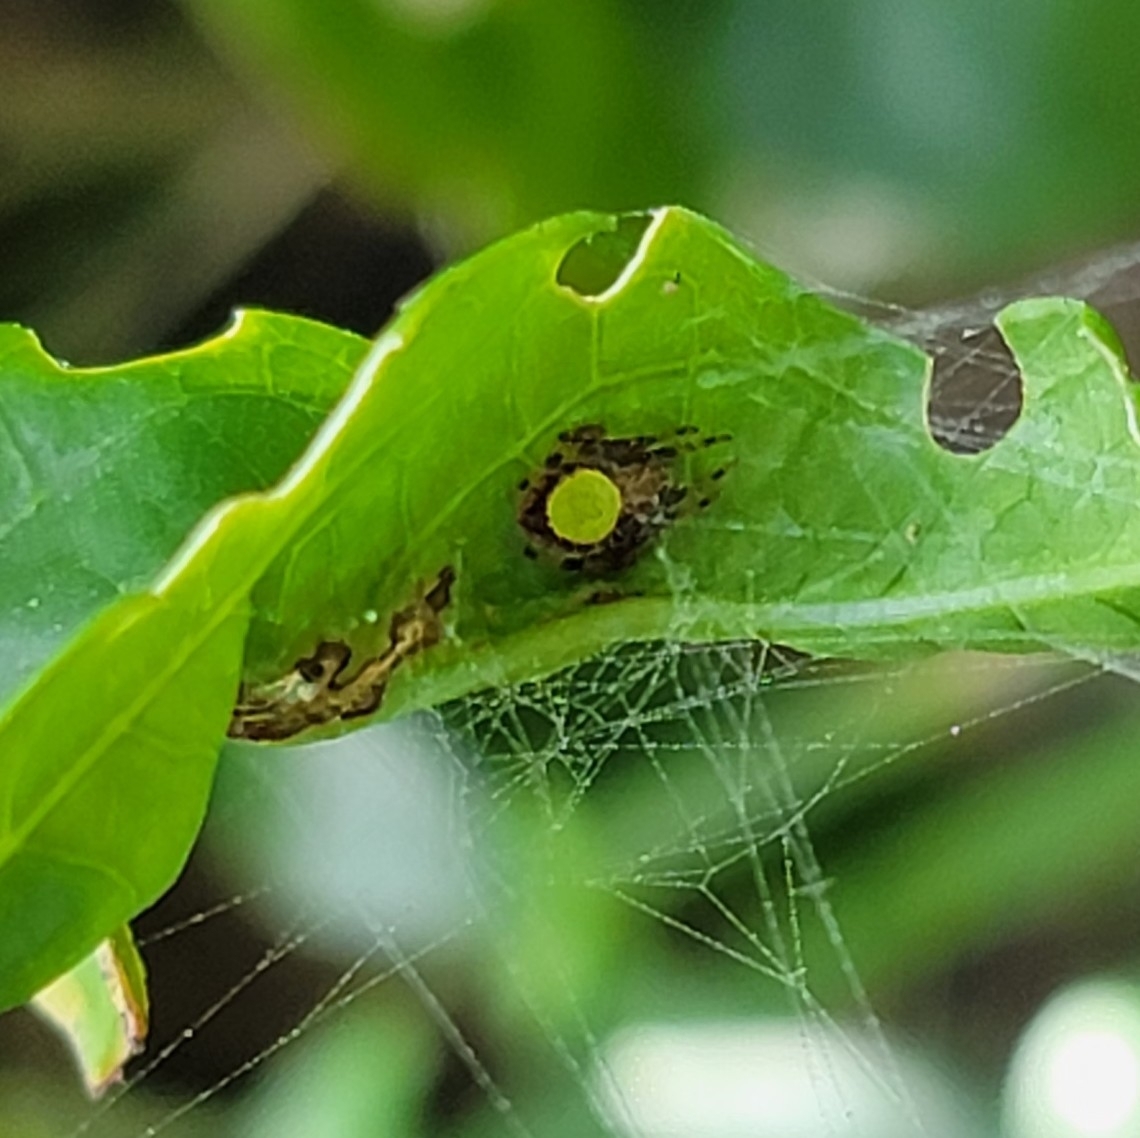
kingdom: Animalia
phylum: Arthropoda
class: Arachnida
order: Araneae
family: Araneidae
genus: Eriophora
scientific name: Eriophora ravilla
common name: Orb weavers
